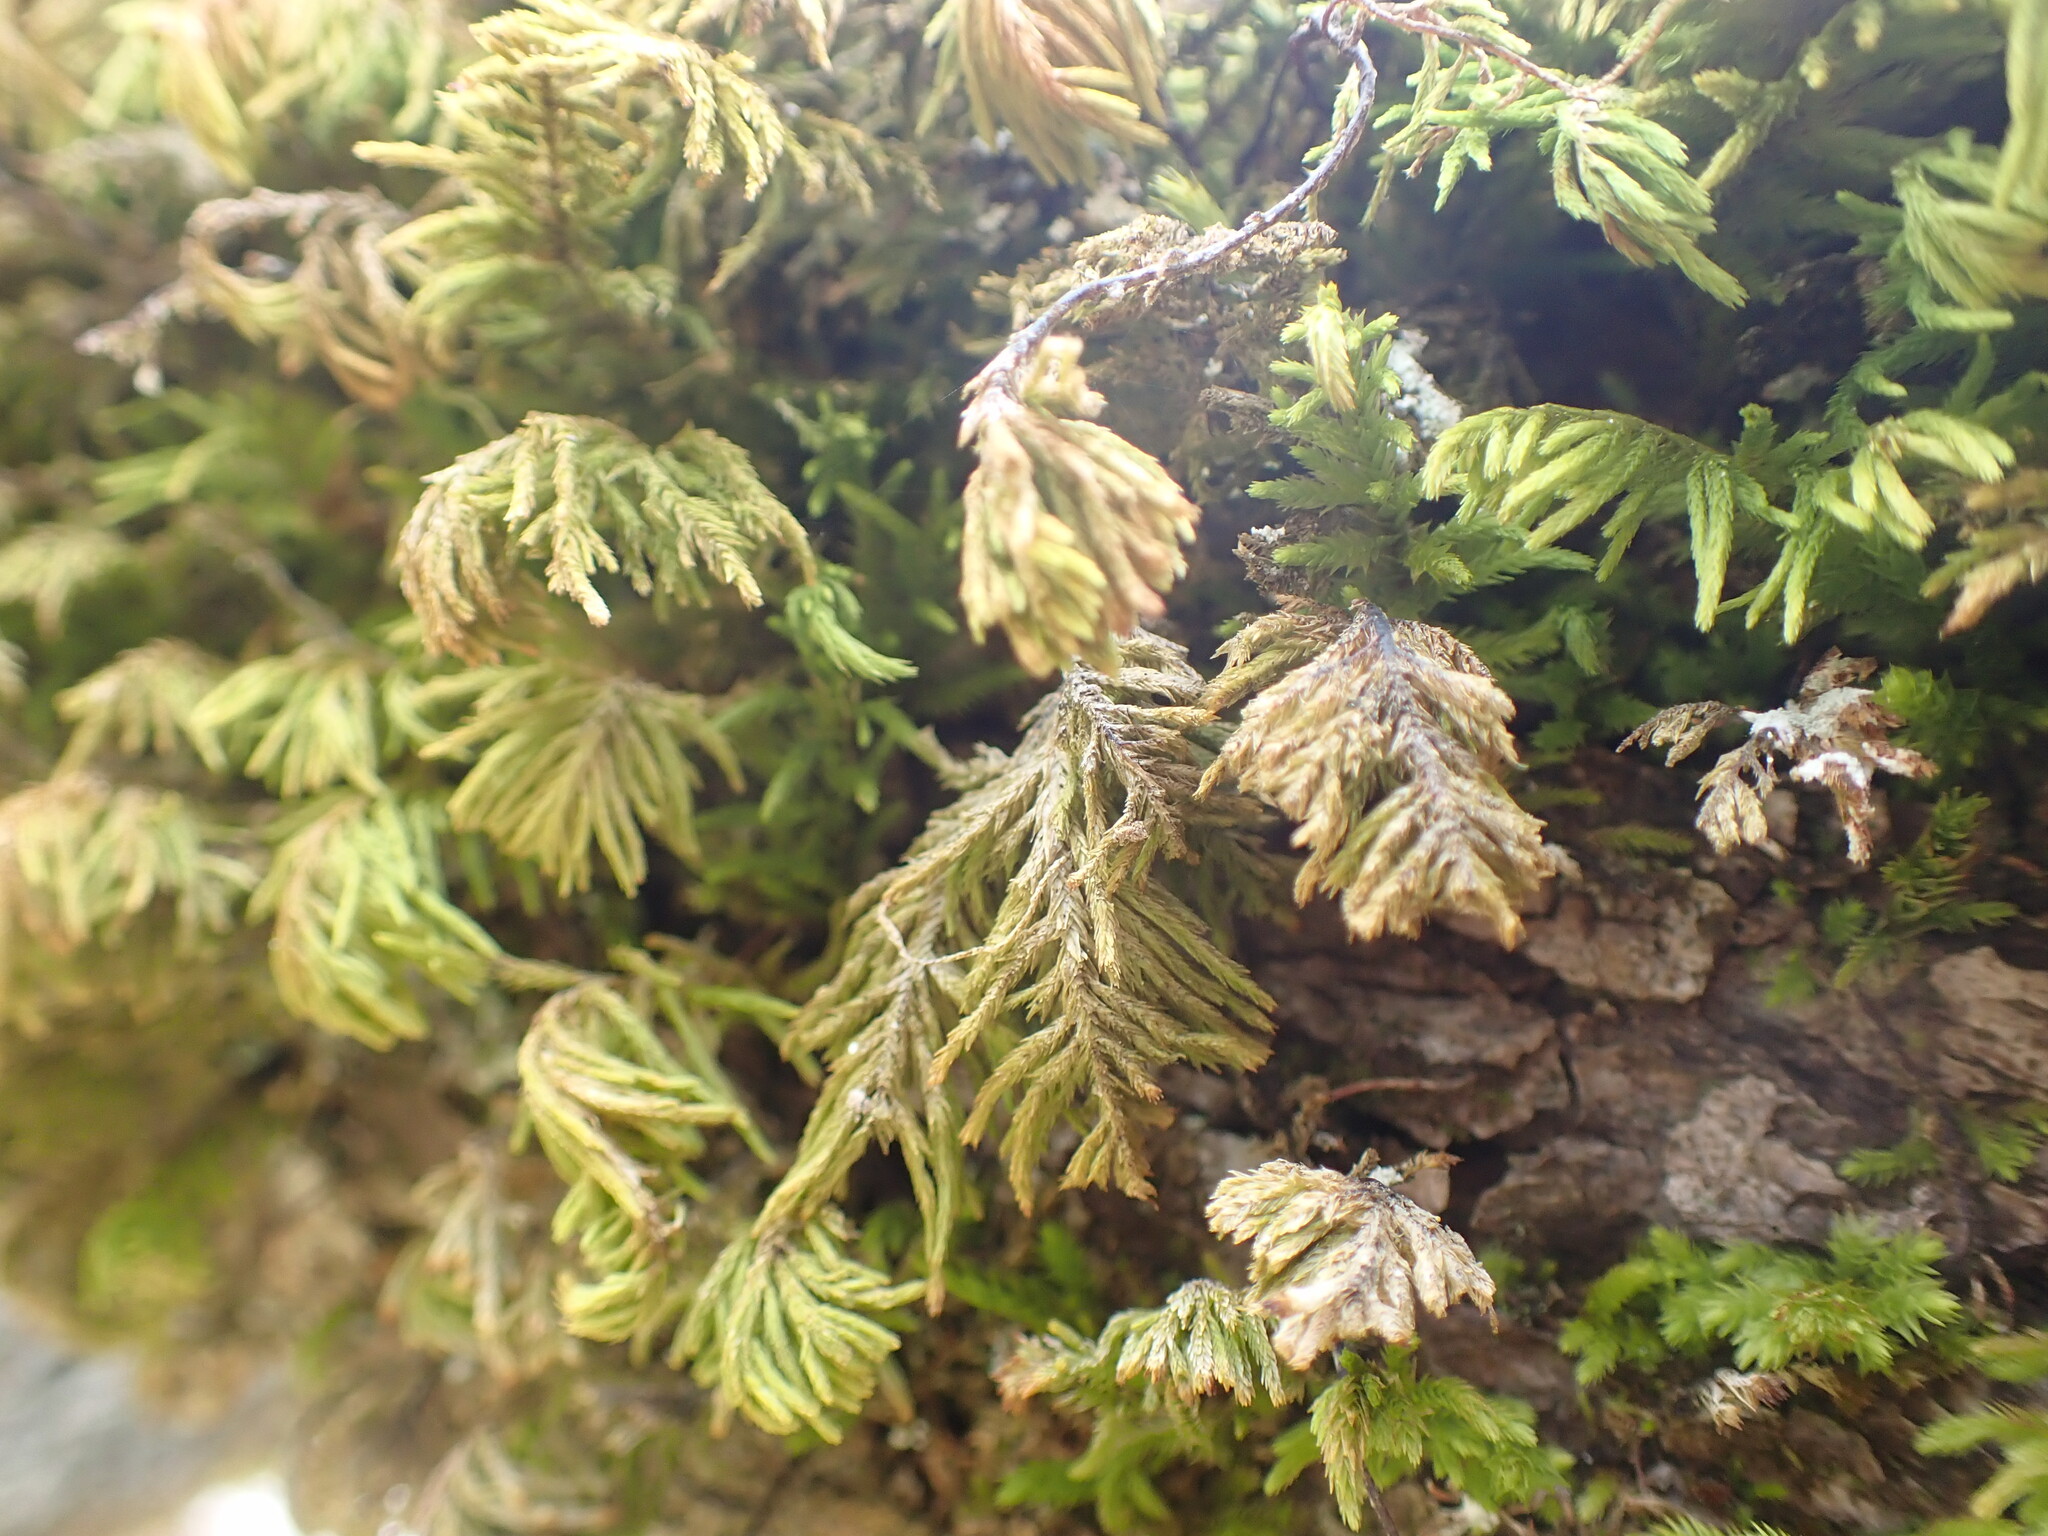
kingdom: Plantae
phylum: Bryophyta
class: Bryopsida
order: Hypnales
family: Cryphaeaceae
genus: Dendroalsia
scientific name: Dendroalsia abietina
